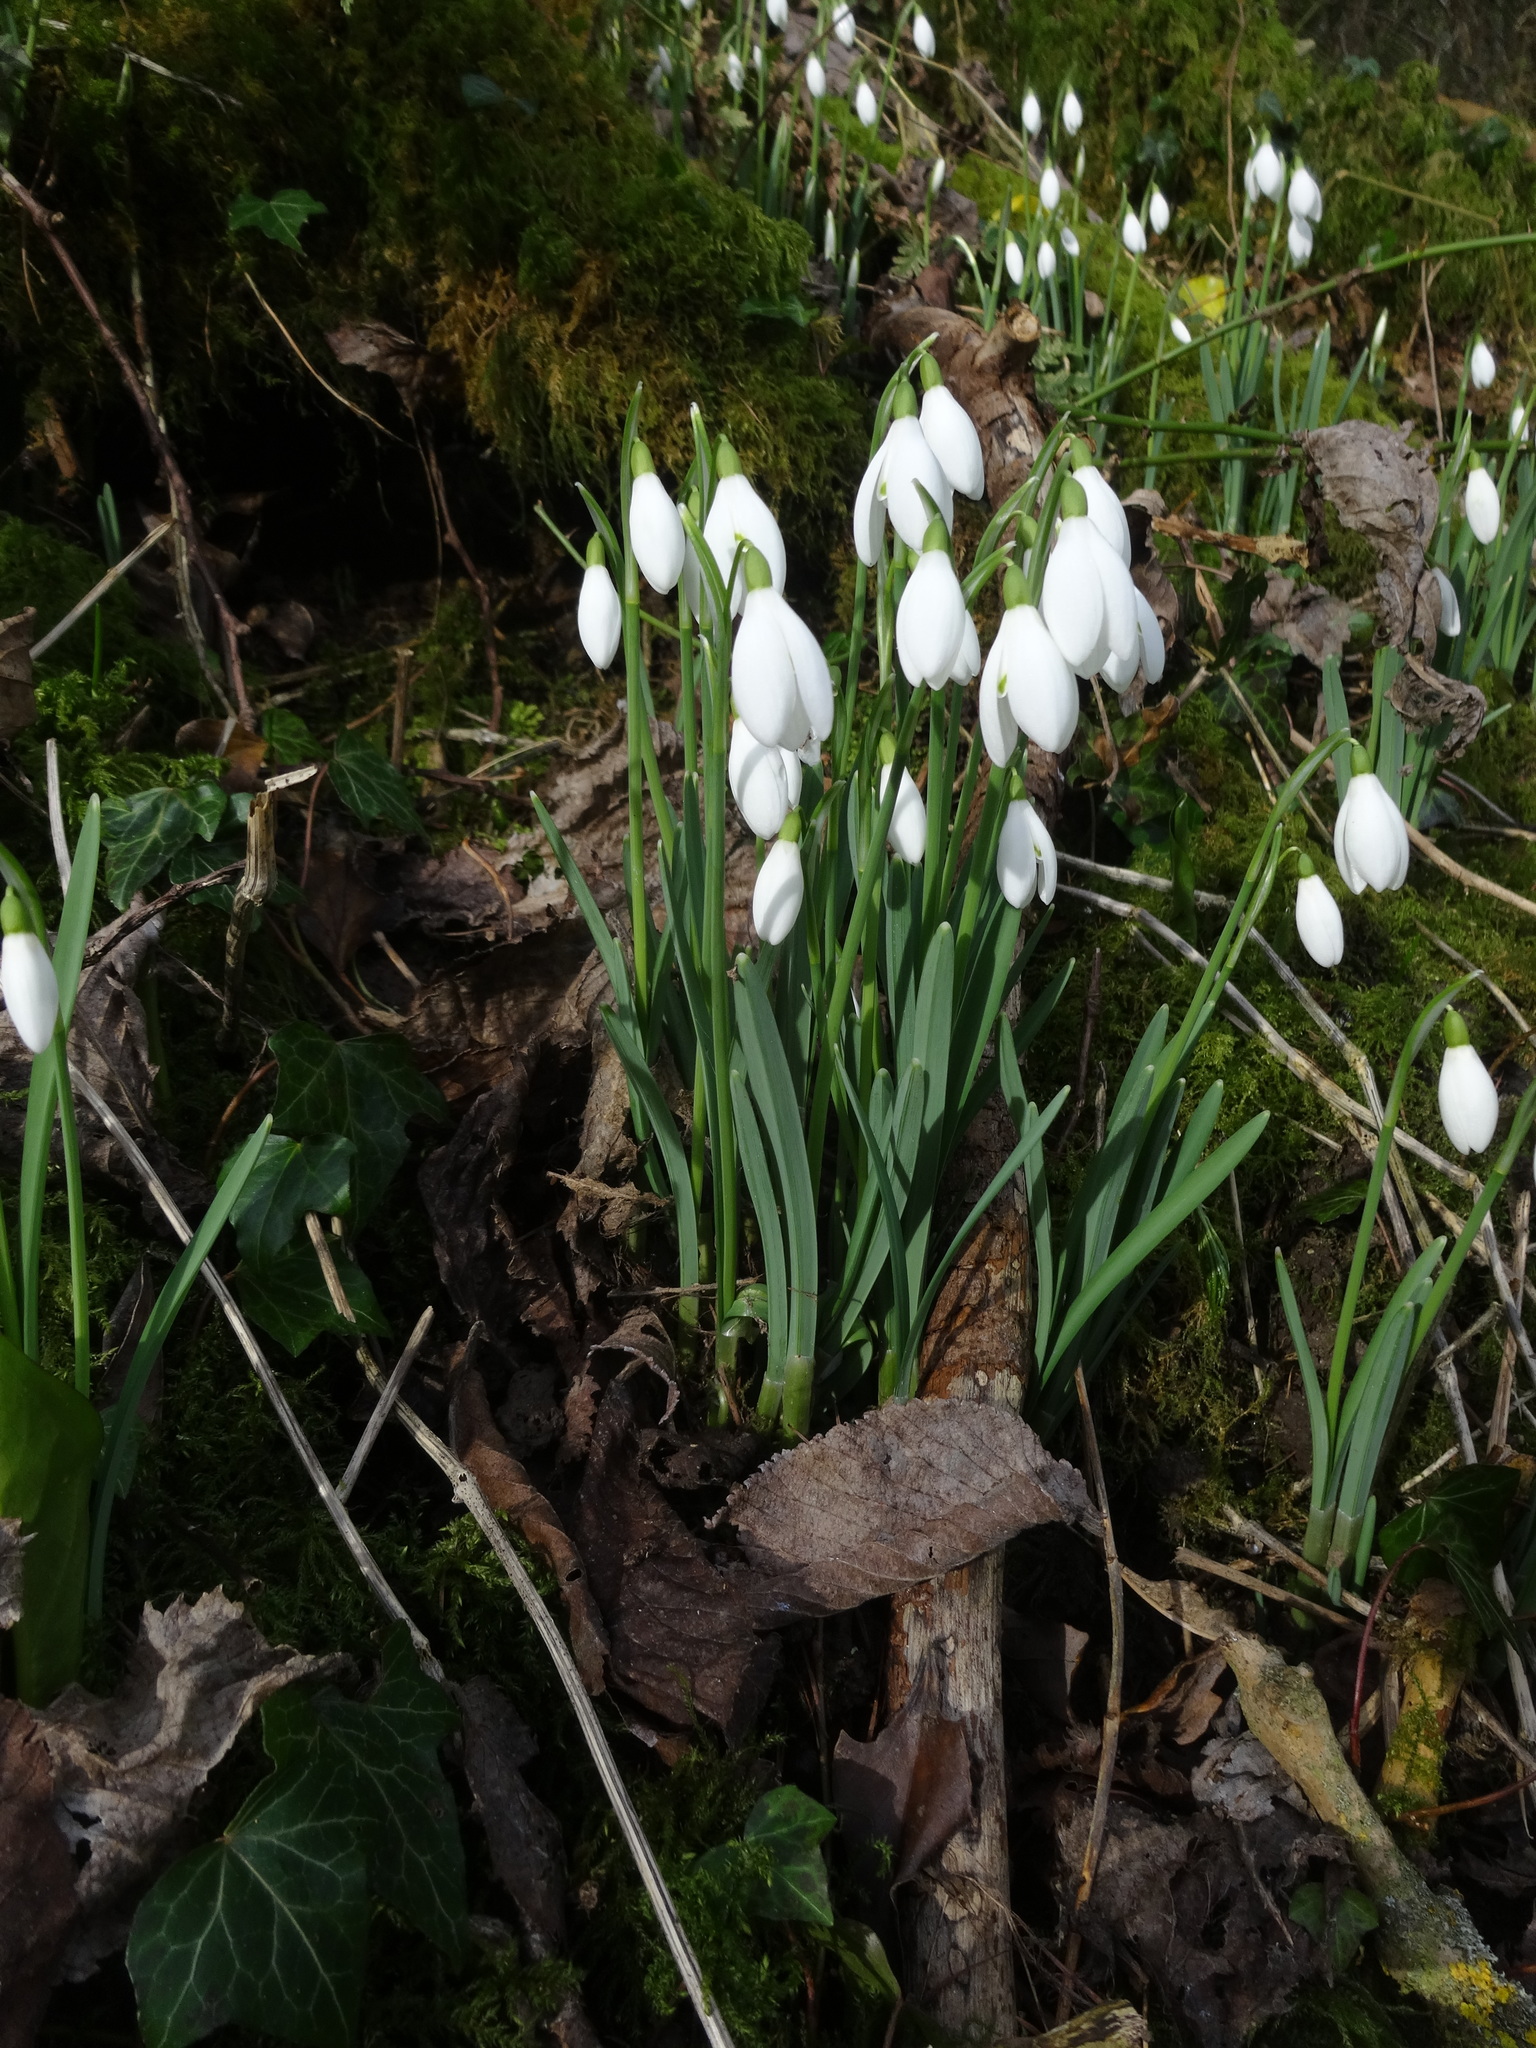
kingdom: Plantae
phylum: Tracheophyta
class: Liliopsida
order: Asparagales
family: Amaryllidaceae
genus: Galanthus
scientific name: Galanthus nivalis
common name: Snowdrop
